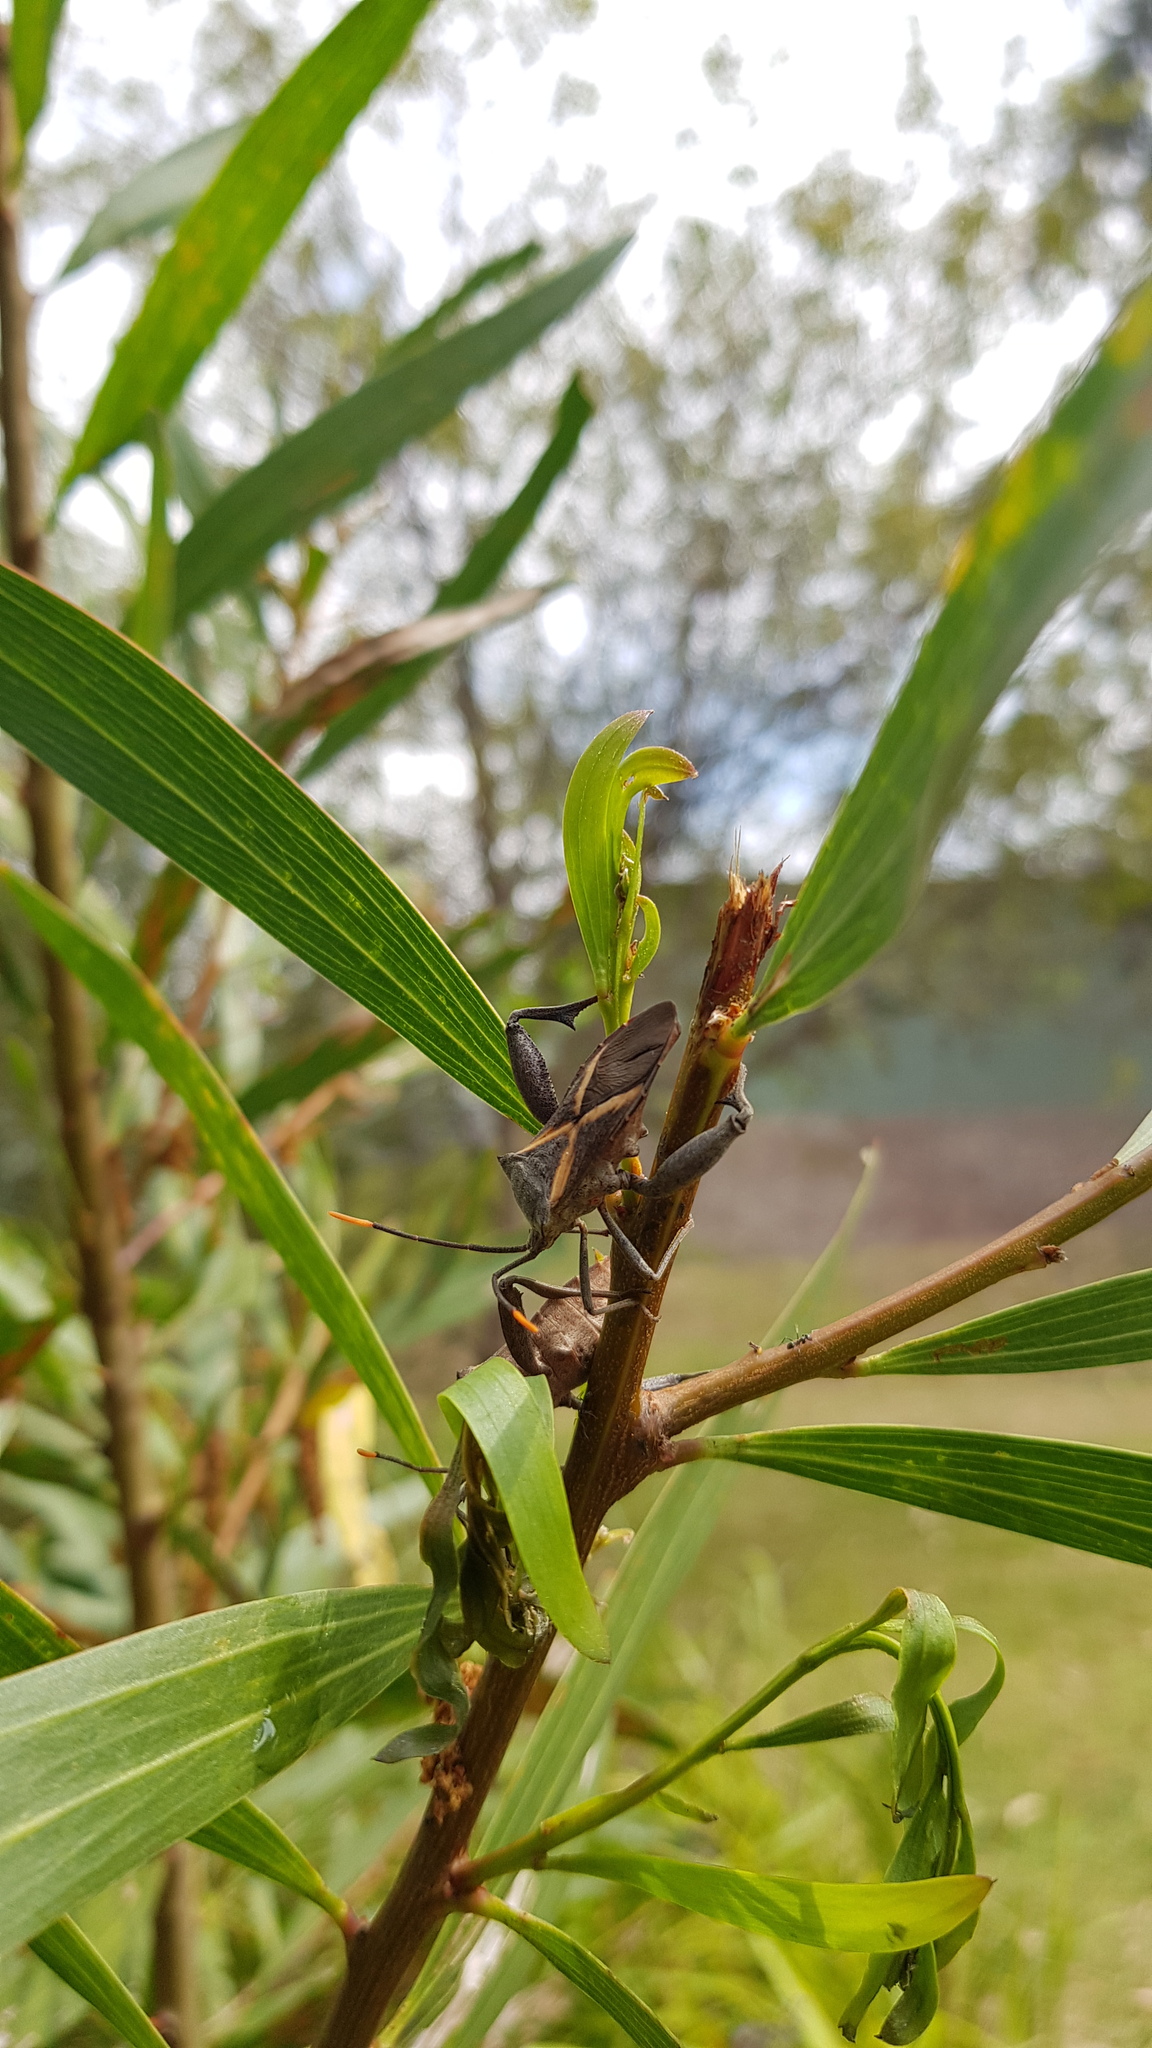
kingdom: Animalia
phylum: Arthropoda
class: Insecta
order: Hemiptera
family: Coreidae
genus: Mictis
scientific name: Mictis profana
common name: Crusader bug
